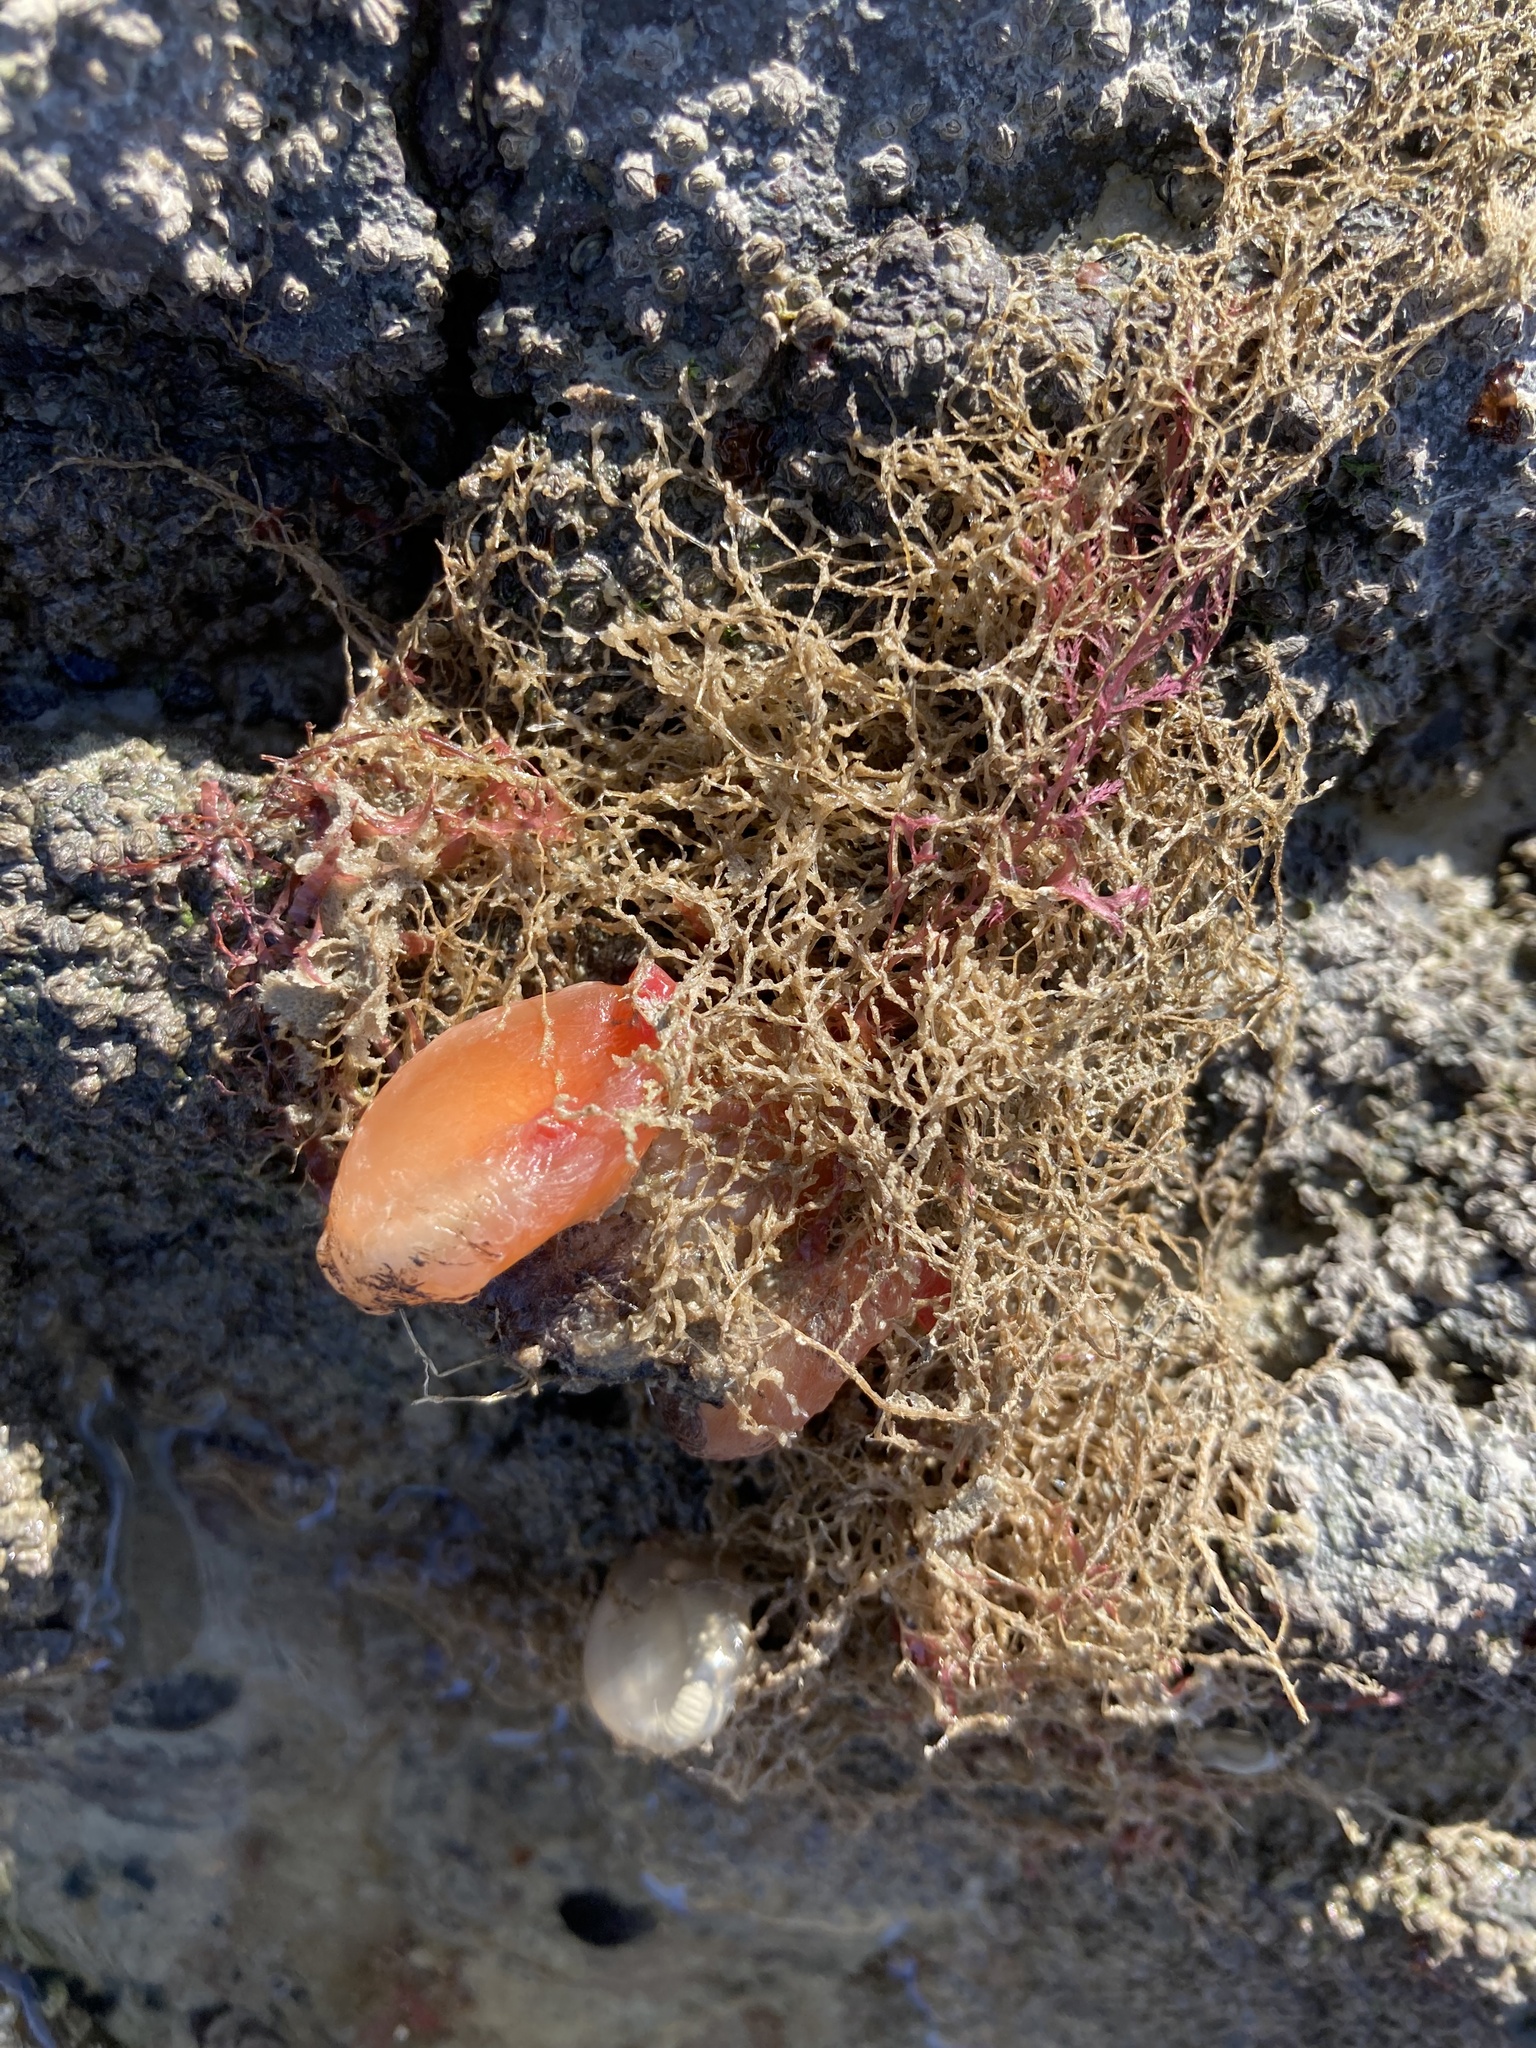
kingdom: Animalia
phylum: Chordata
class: Ascidiacea
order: Phlebobranchia
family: Corellidae
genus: Corella
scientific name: Corella eumyota
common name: Orange-tipped sea squirt
